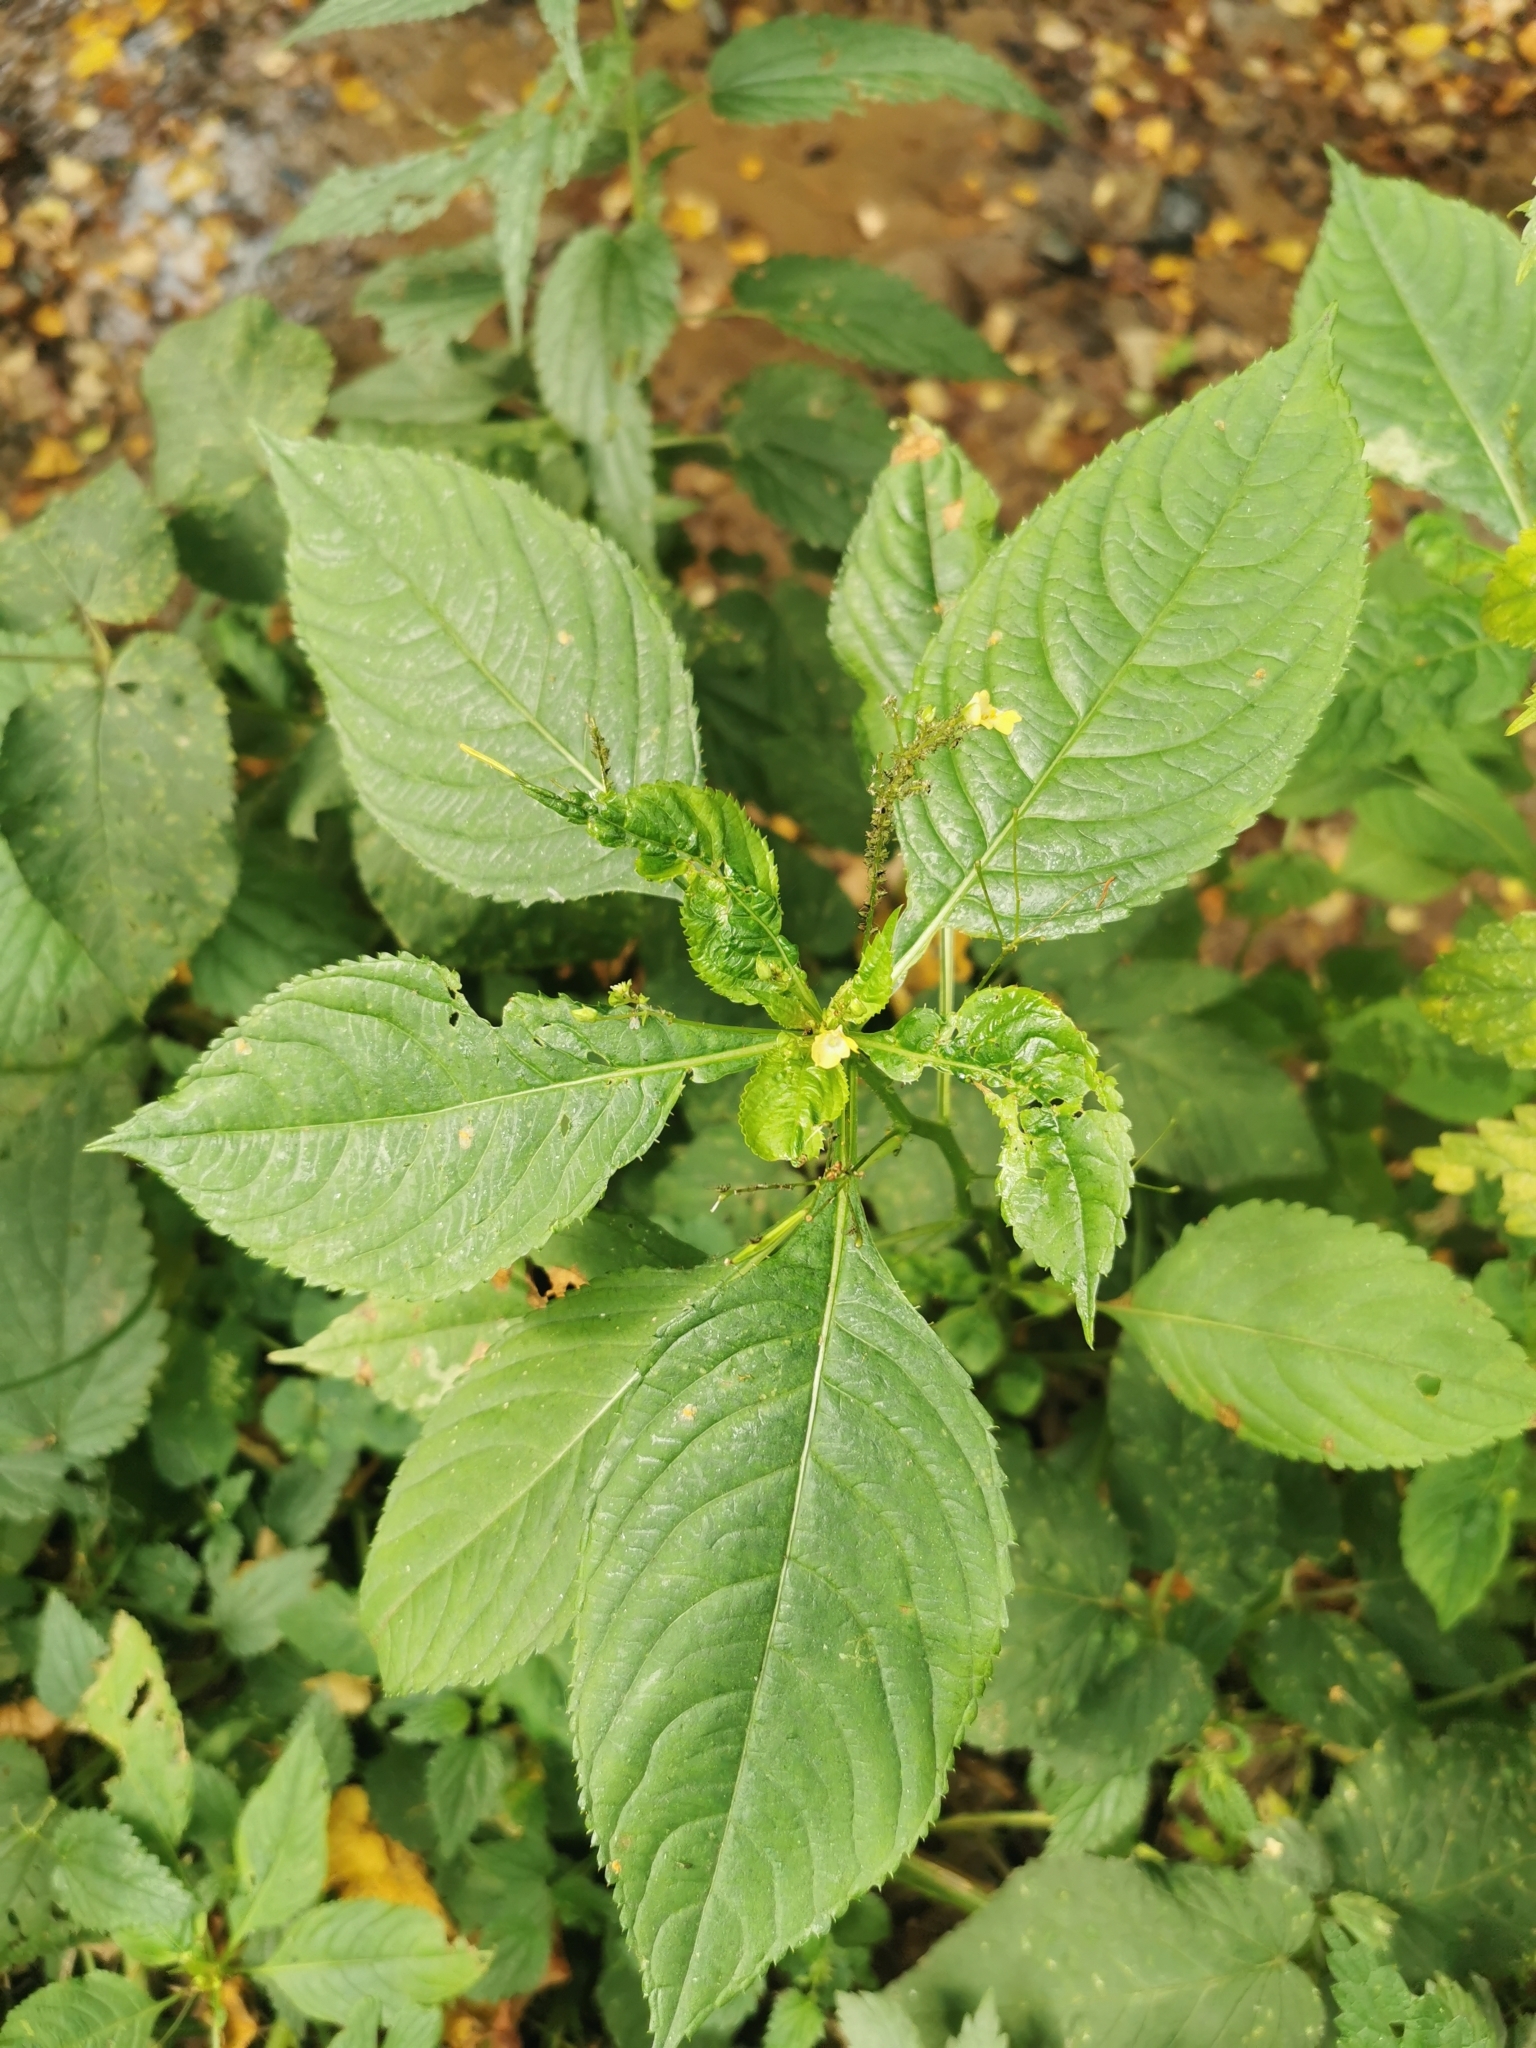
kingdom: Plantae
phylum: Tracheophyta
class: Magnoliopsida
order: Ericales
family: Balsaminaceae
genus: Impatiens
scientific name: Impatiens parviflora
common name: Small balsam
